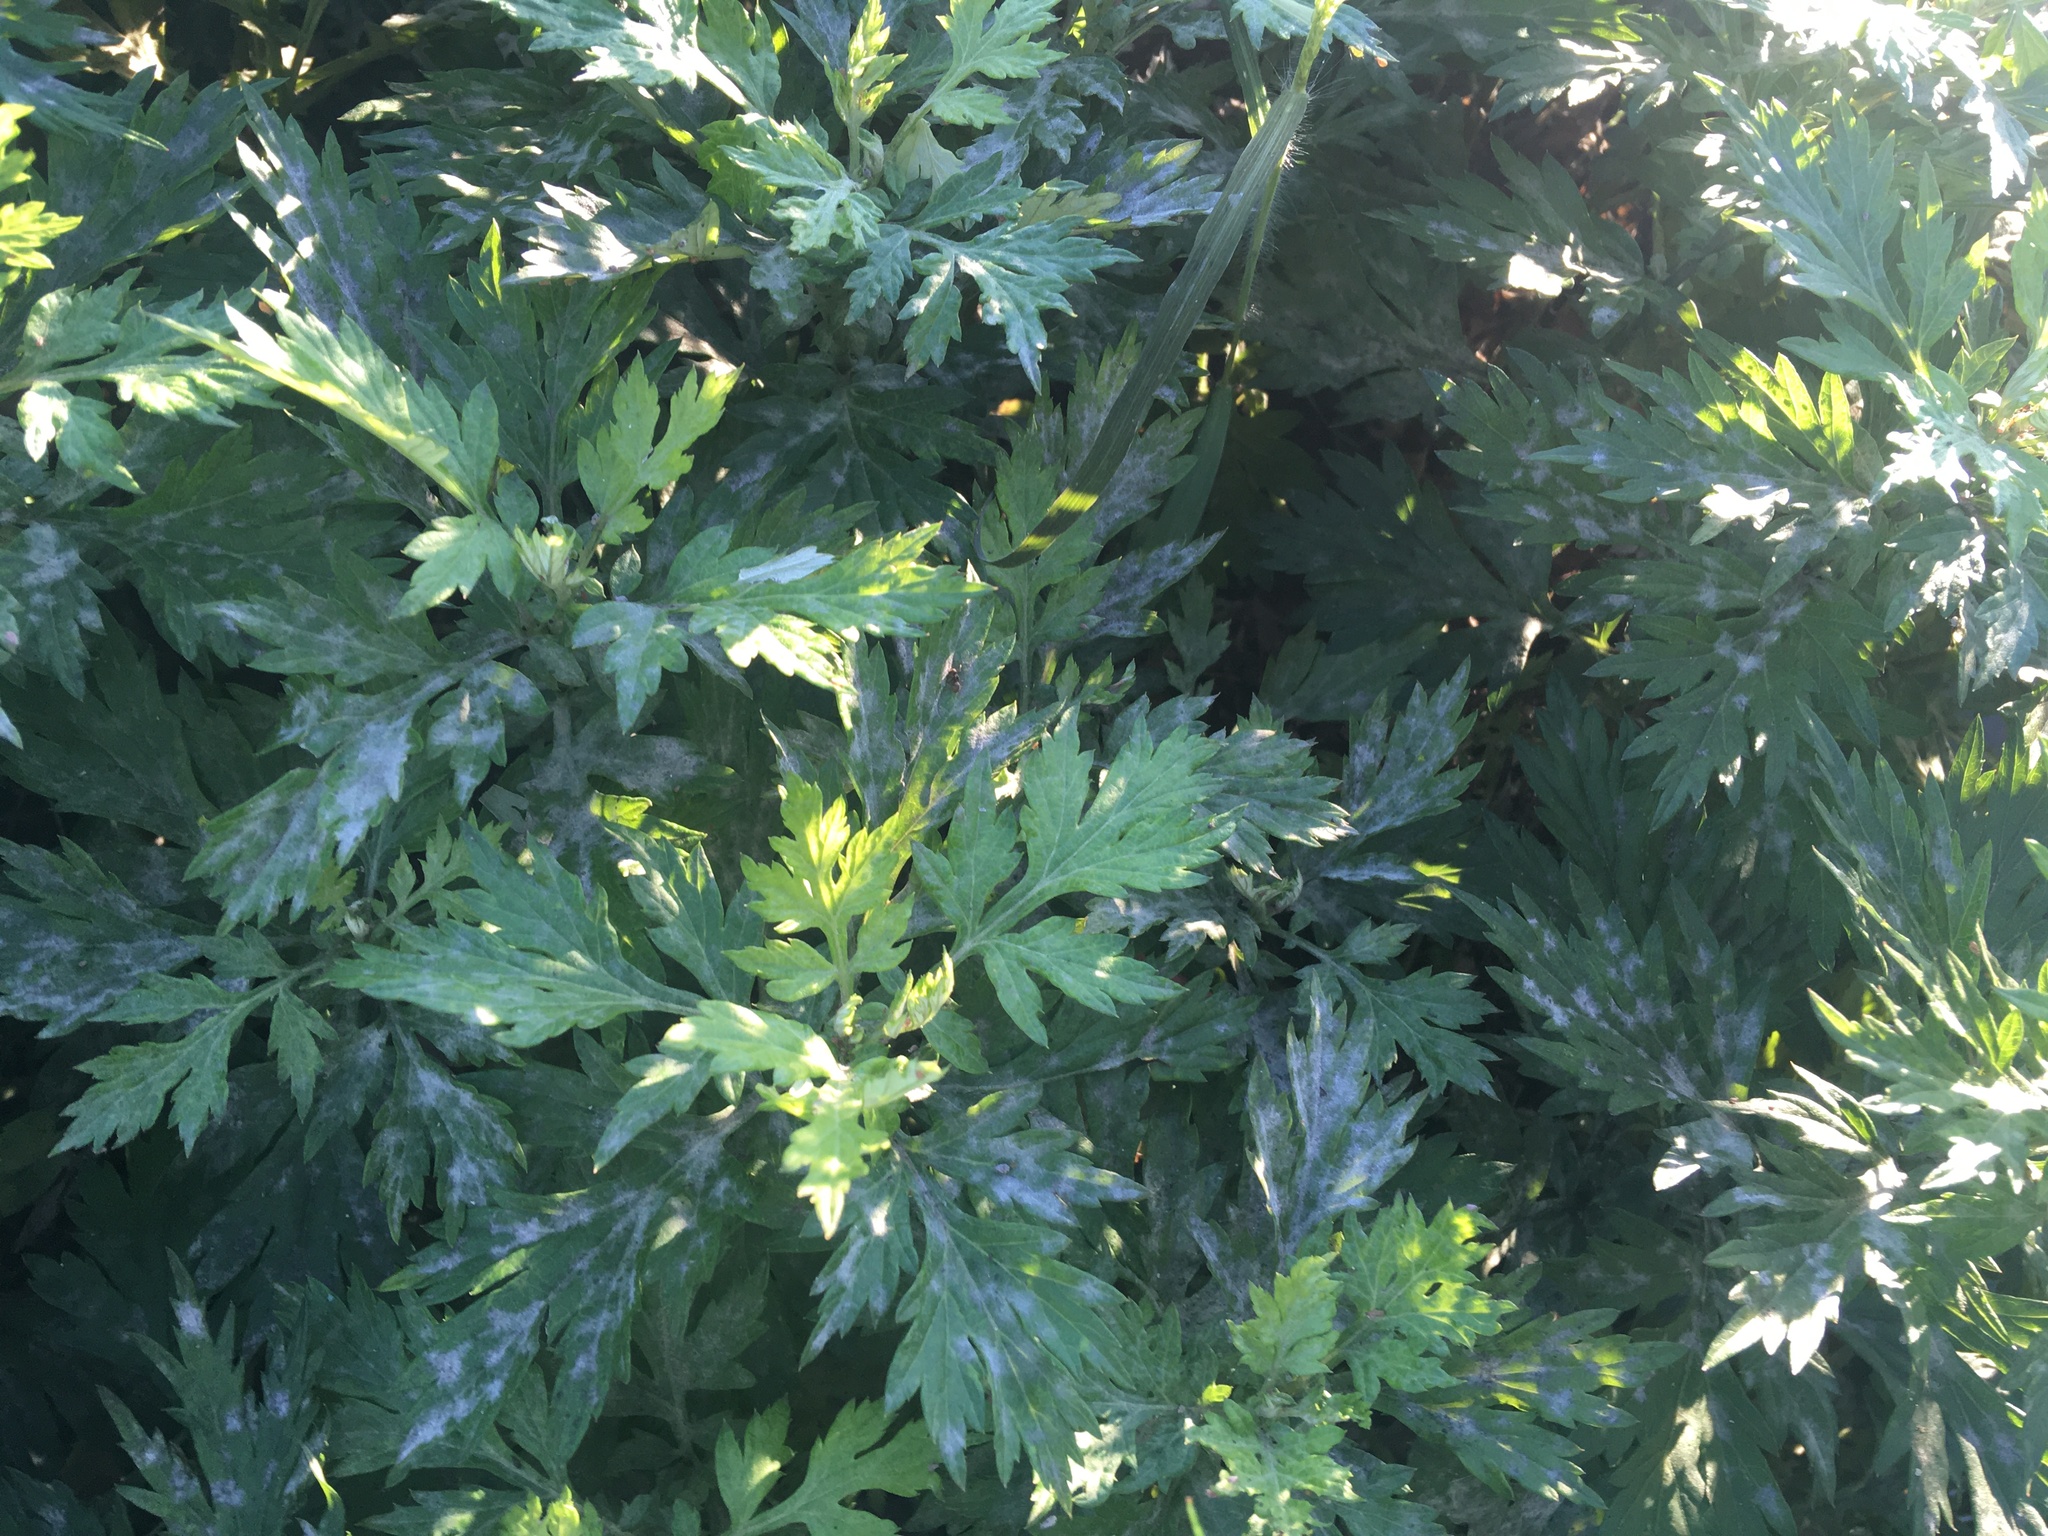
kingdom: Plantae
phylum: Tracheophyta
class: Magnoliopsida
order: Asterales
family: Asteraceae
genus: Artemisia
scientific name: Artemisia vulgaris
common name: Mugwort
